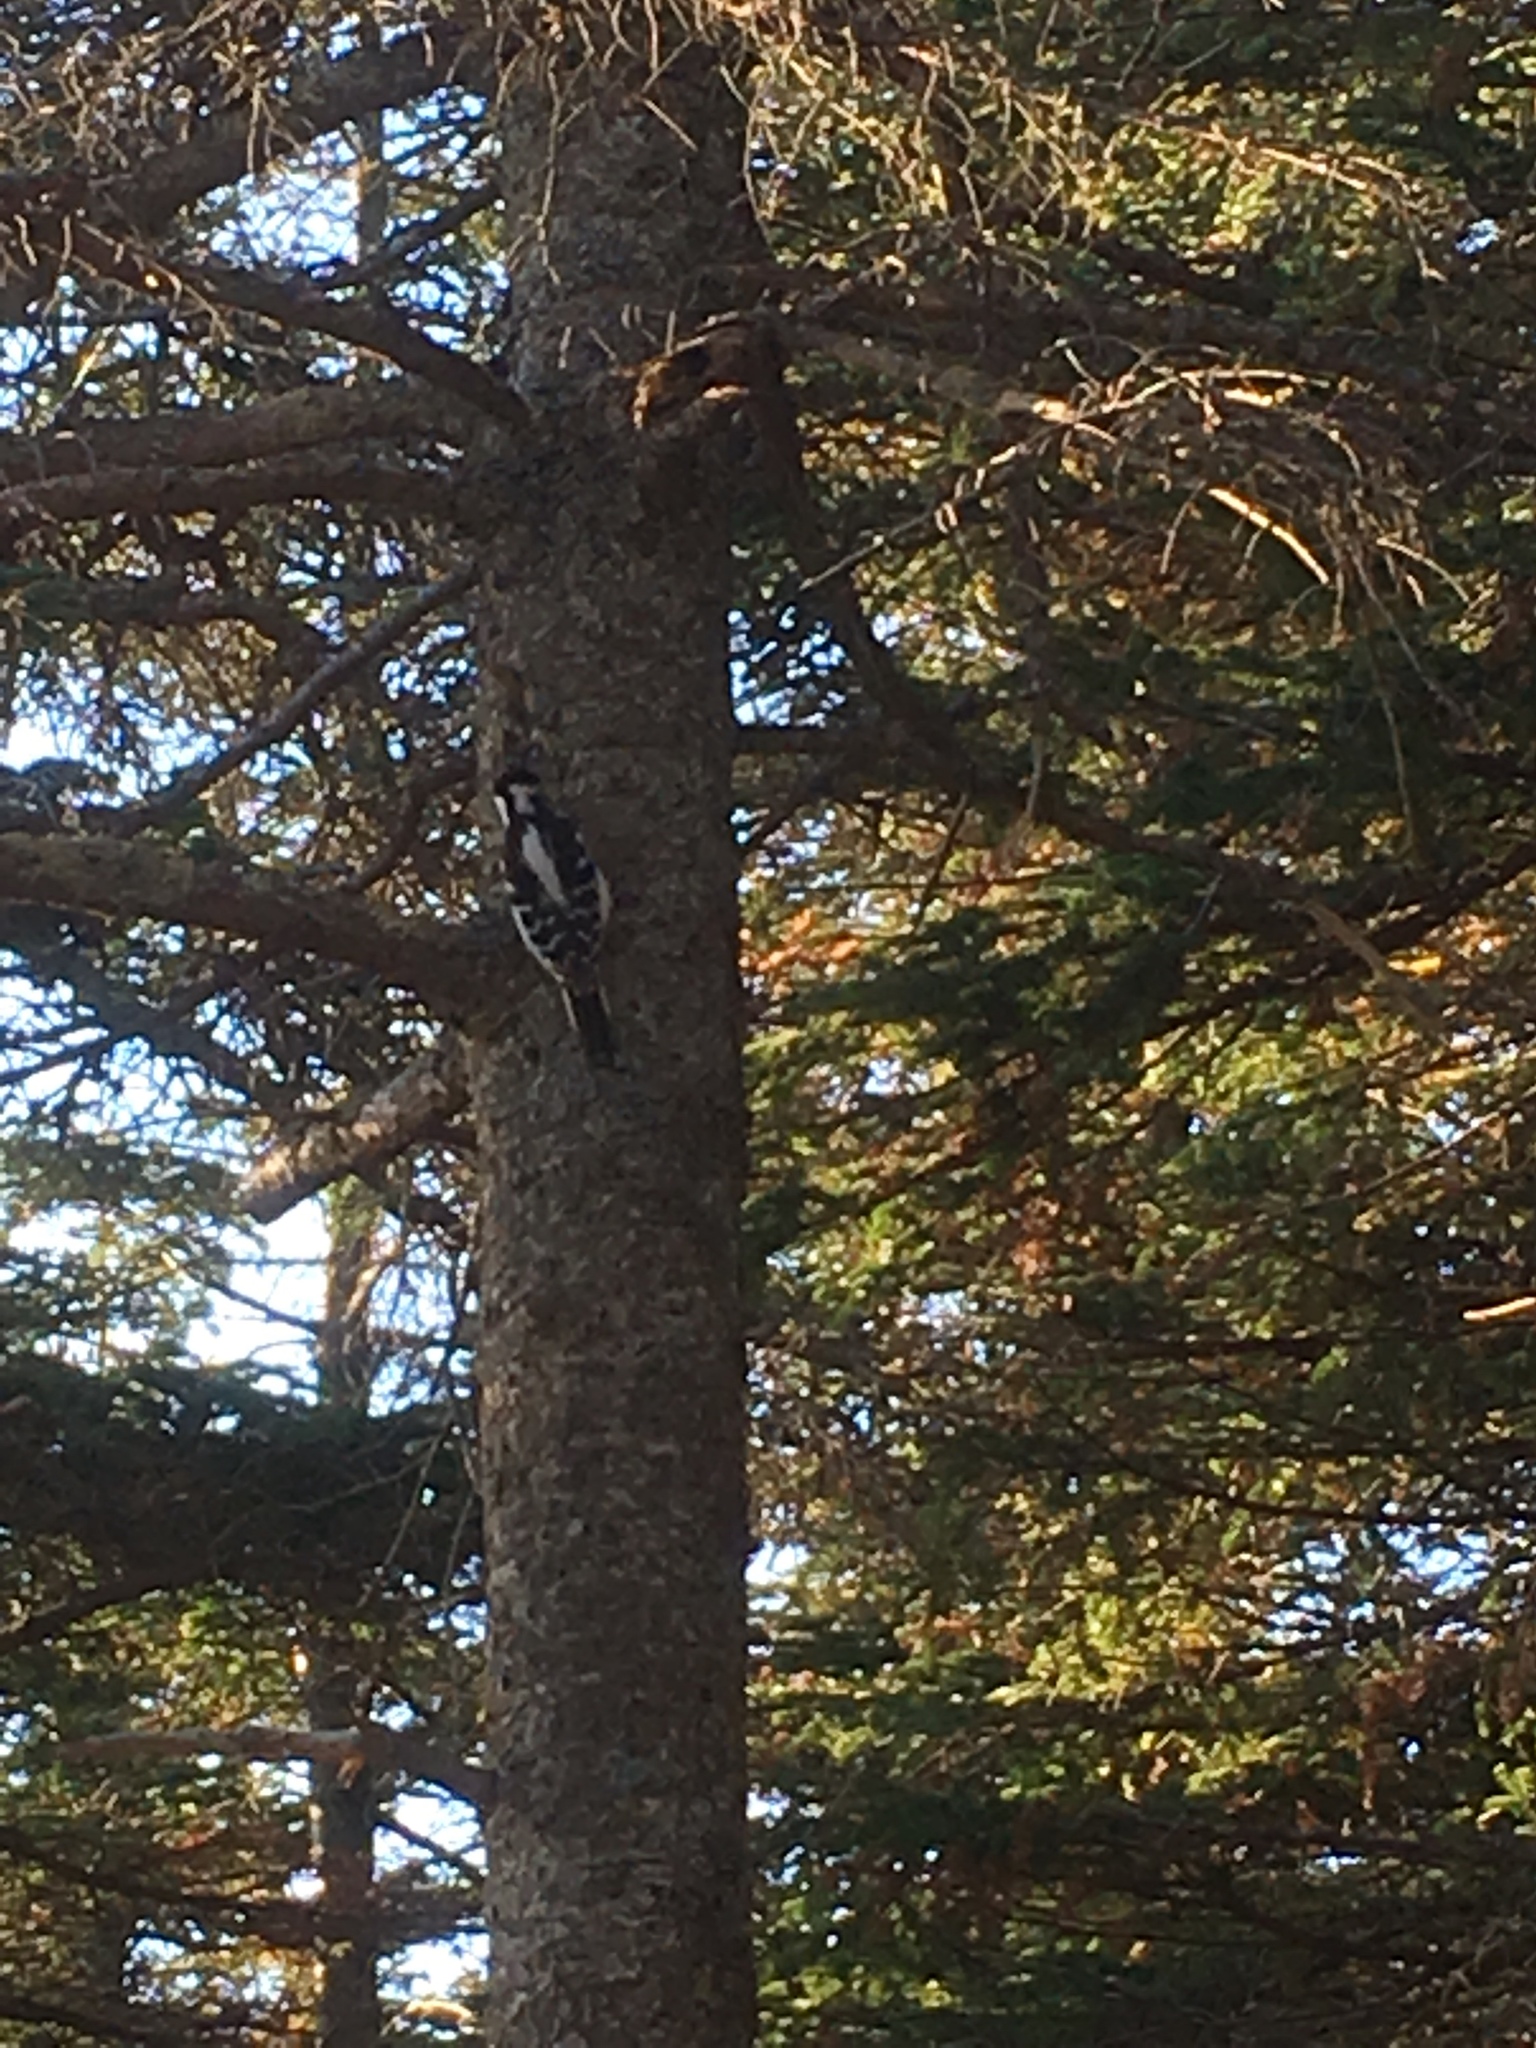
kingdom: Animalia
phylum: Chordata
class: Aves
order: Piciformes
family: Picidae
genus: Leuconotopicus
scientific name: Leuconotopicus villosus
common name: Hairy woodpecker
